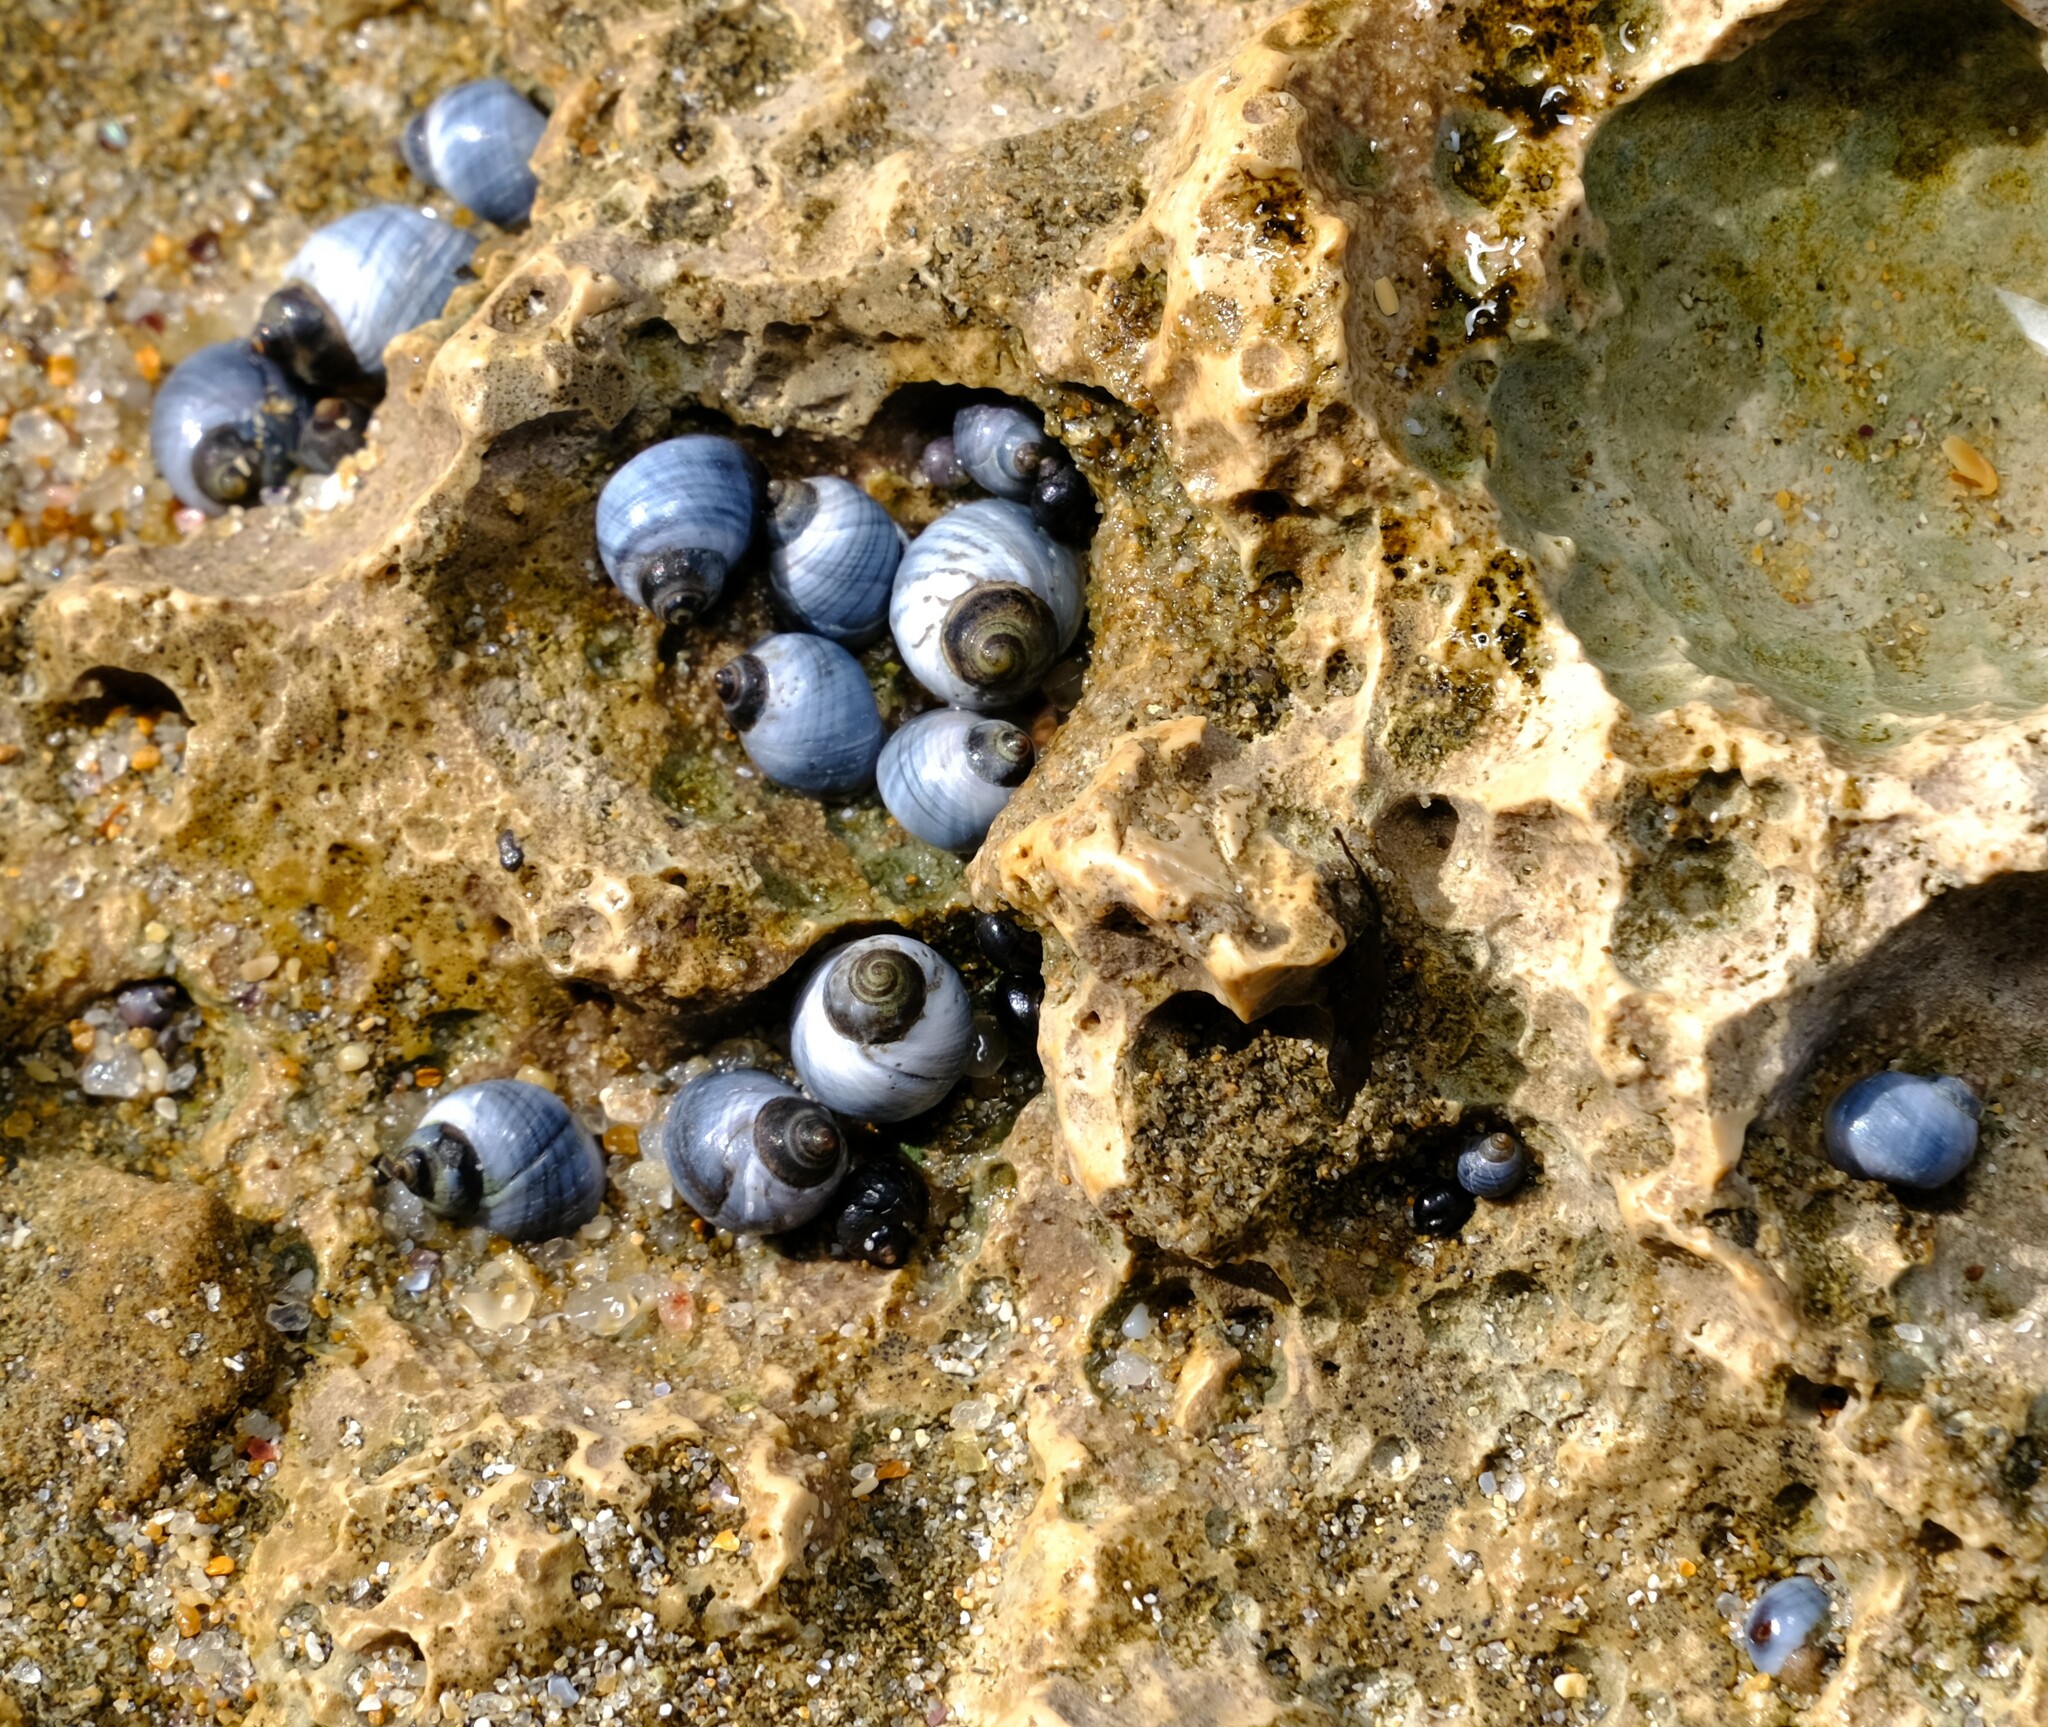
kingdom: Animalia
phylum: Mollusca
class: Gastropoda
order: Littorinimorpha
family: Littorinidae
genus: Austrolittorina
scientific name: Austrolittorina unifasciata
